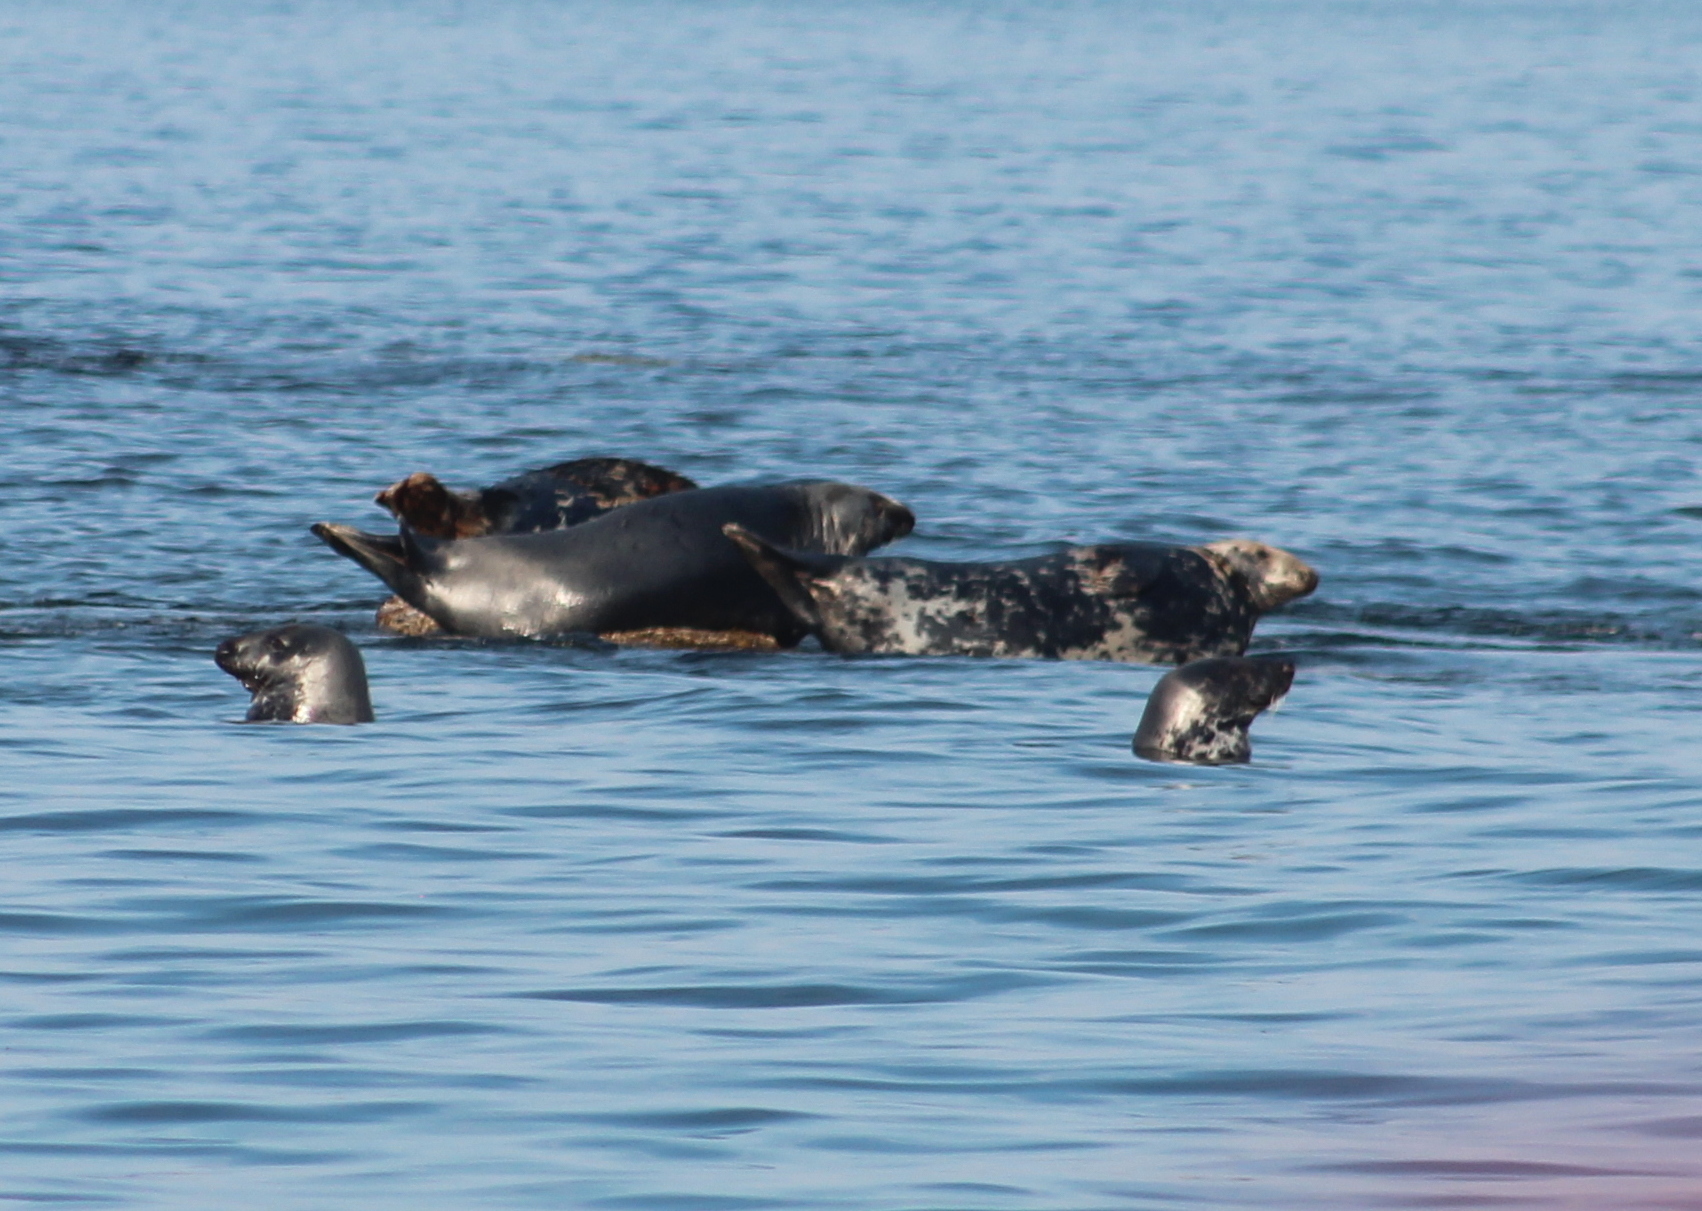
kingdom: Animalia
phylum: Chordata
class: Mammalia
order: Carnivora
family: Phocidae
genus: Halichoerus
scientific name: Halichoerus grypus
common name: Grey seal
